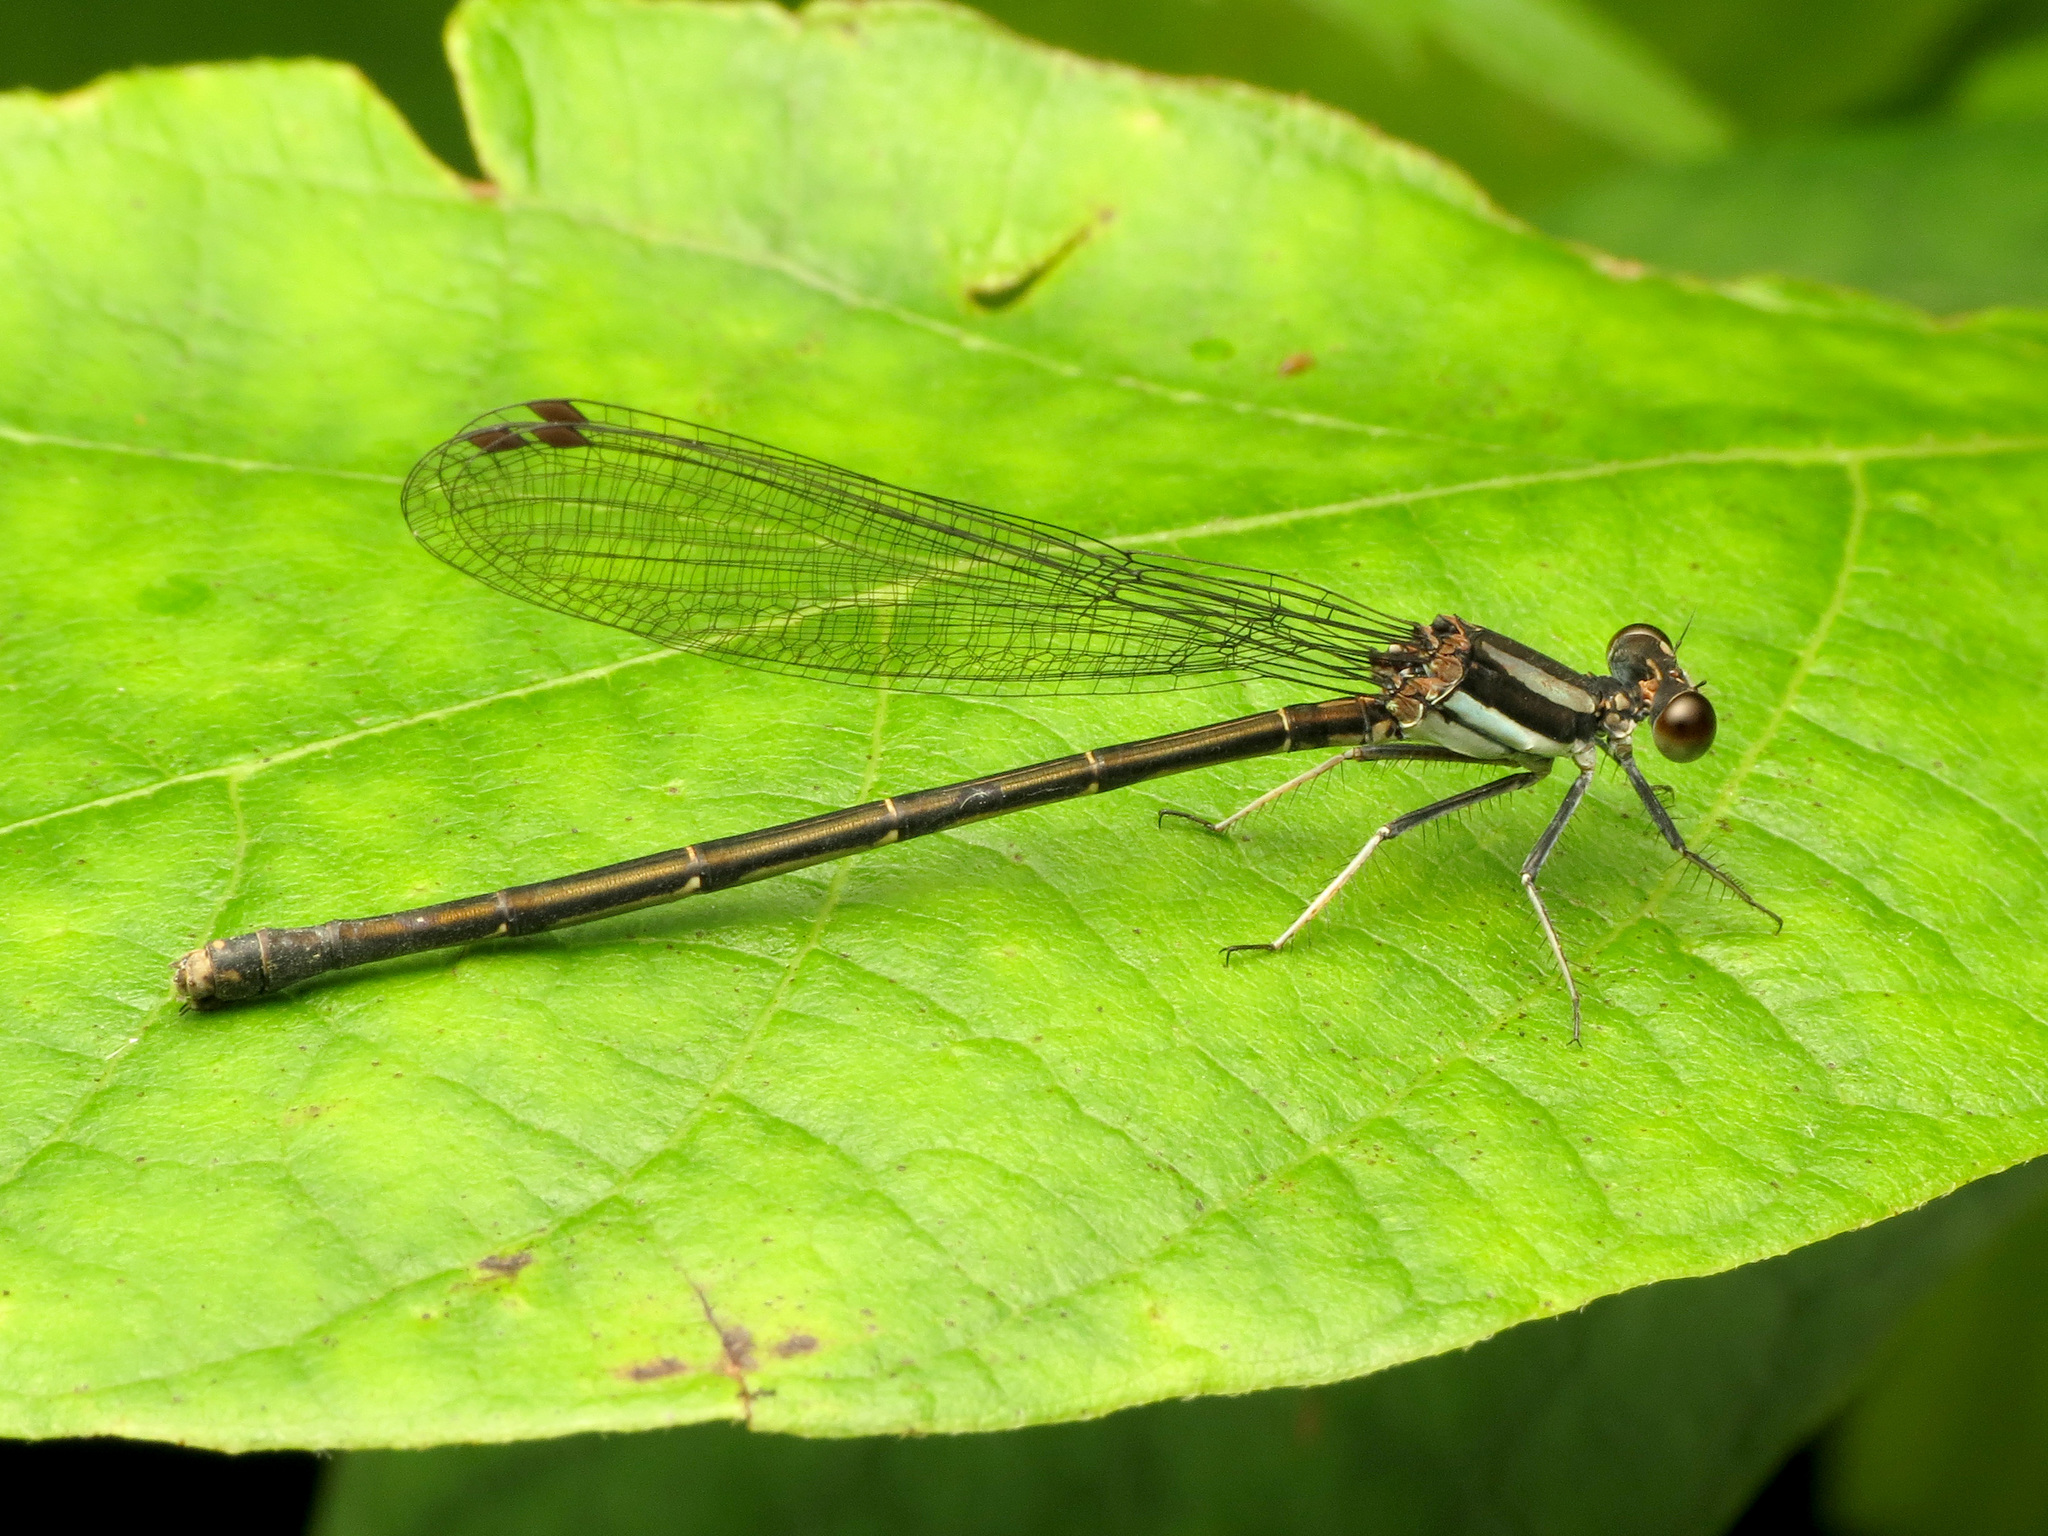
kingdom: Animalia
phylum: Arthropoda
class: Insecta
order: Odonata
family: Coenagrionidae
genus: Argia
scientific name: Argia tibialis
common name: Blue-tipped dancer
